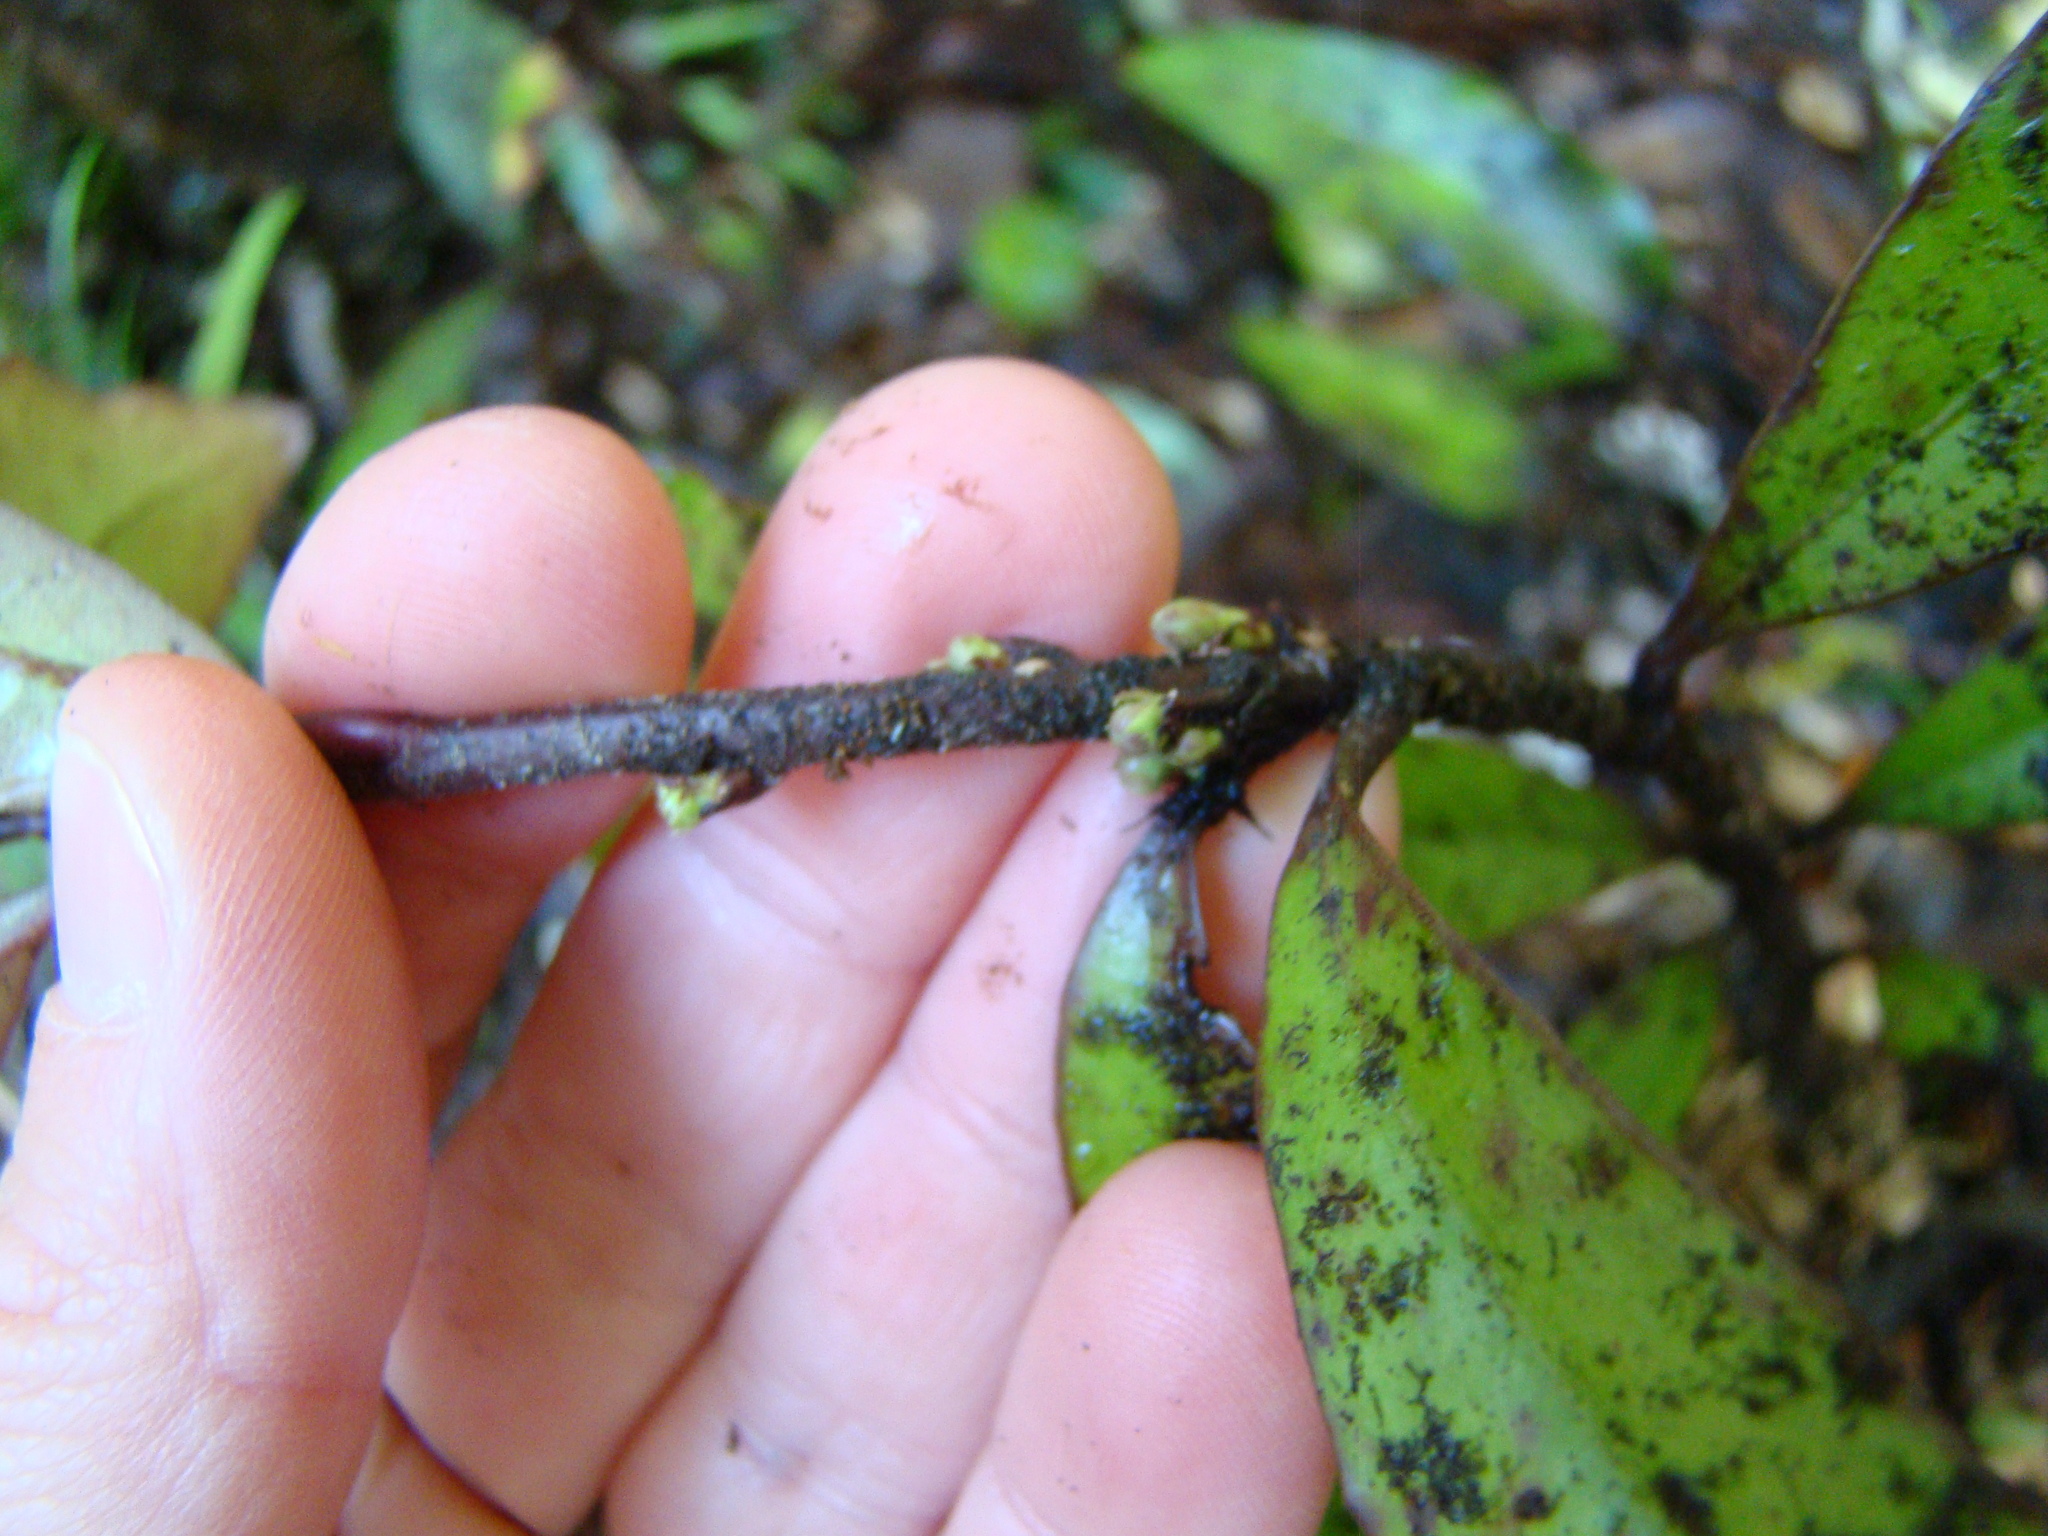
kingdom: Plantae
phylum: Tracheophyta
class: Magnoliopsida
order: Asterales
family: Alseuosmiaceae
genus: Alseuosmia
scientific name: Alseuosmia pusilla
